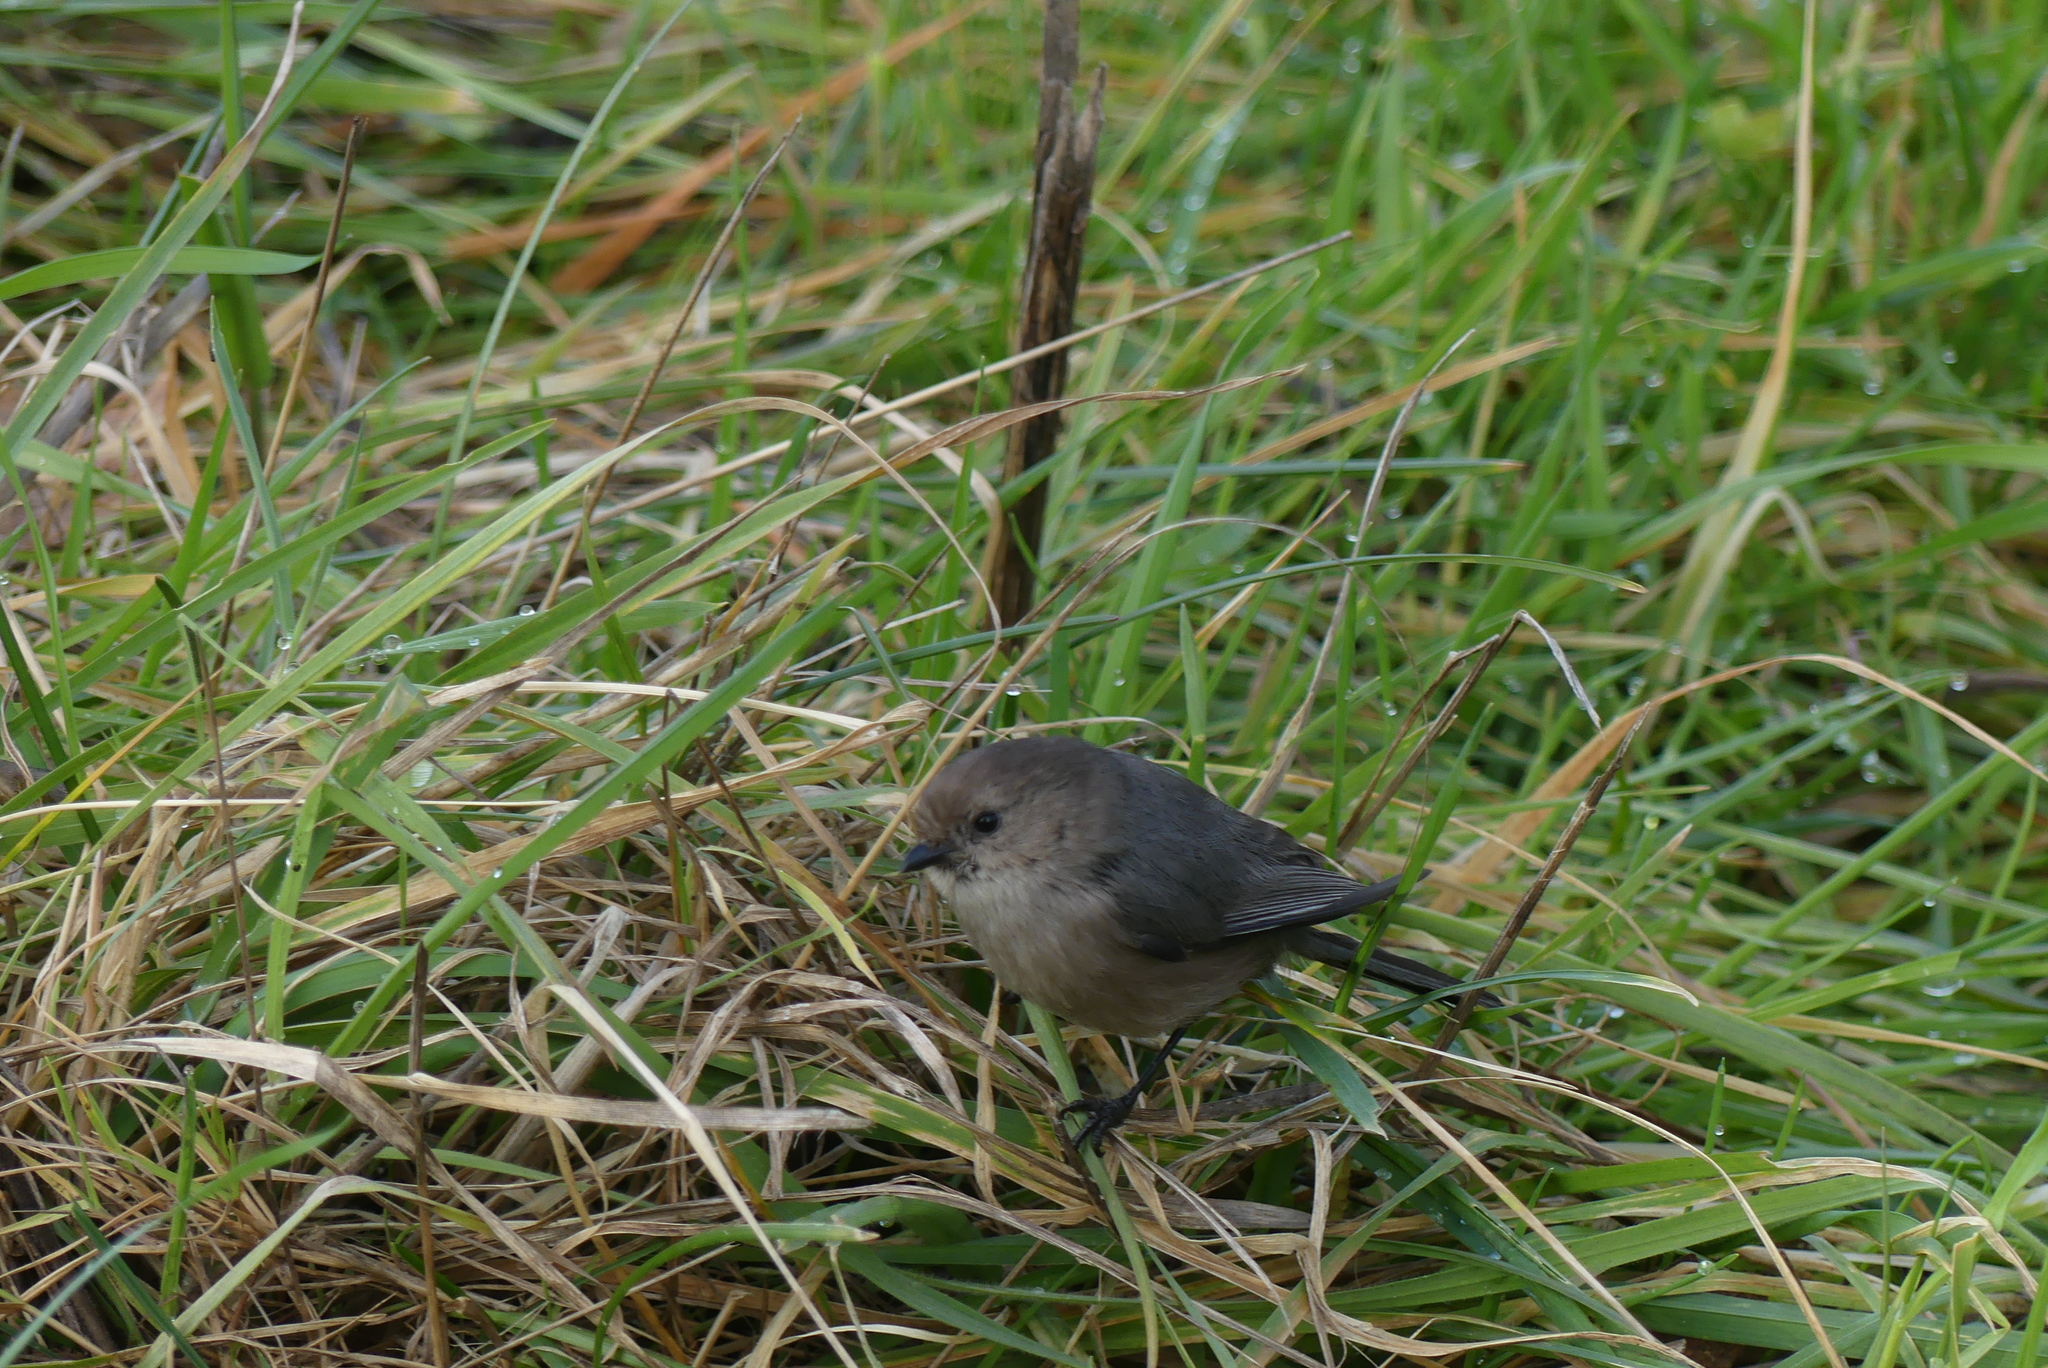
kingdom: Animalia
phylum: Chordata
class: Aves
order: Passeriformes
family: Aegithalidae
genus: Psaltriparus
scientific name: Psaltriparus minimus
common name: American bushtit
